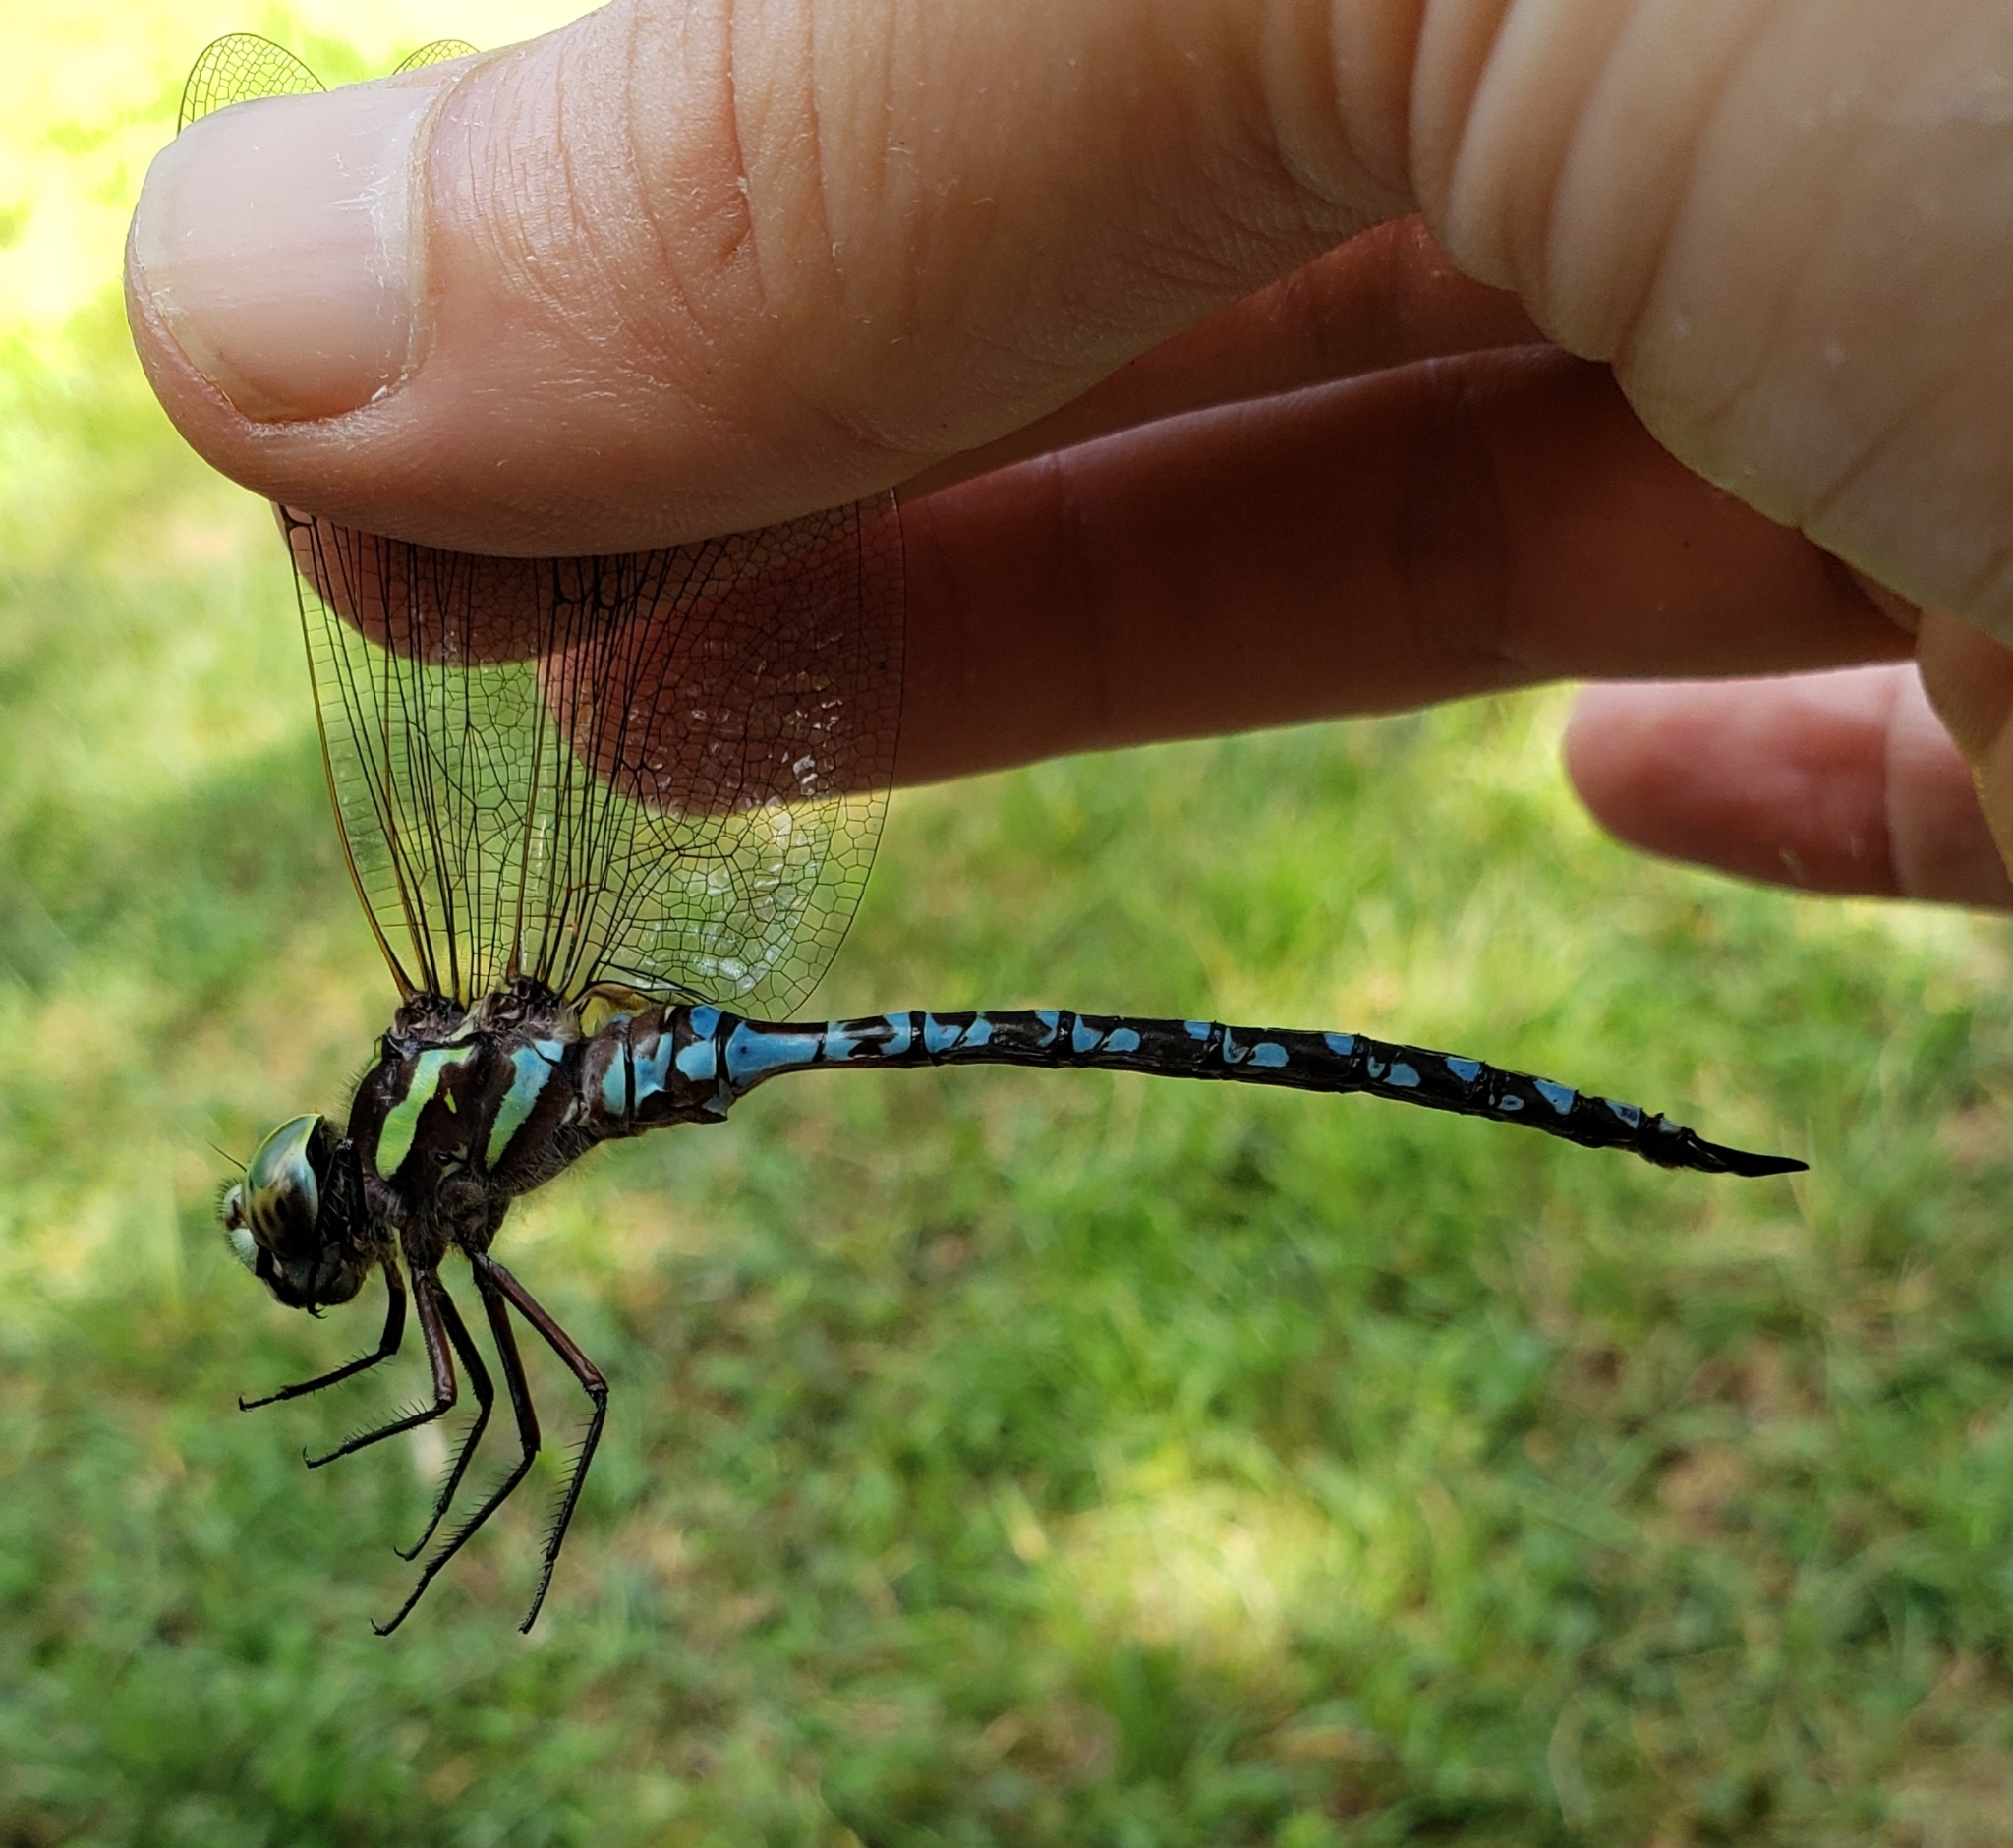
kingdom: Animalia
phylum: Arthropoda
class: Insecta
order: Odonata
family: Aeshnidae
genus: Aeshna
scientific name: Aeshna verticalis
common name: Green-striped darner
